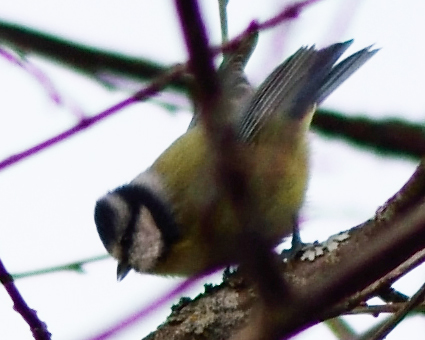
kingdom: Animalia
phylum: Chordata
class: Aves
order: Passeriformes
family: Paridae
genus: Cyanistes
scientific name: Cyanistes caeruleus
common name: Eurasian blue tit
